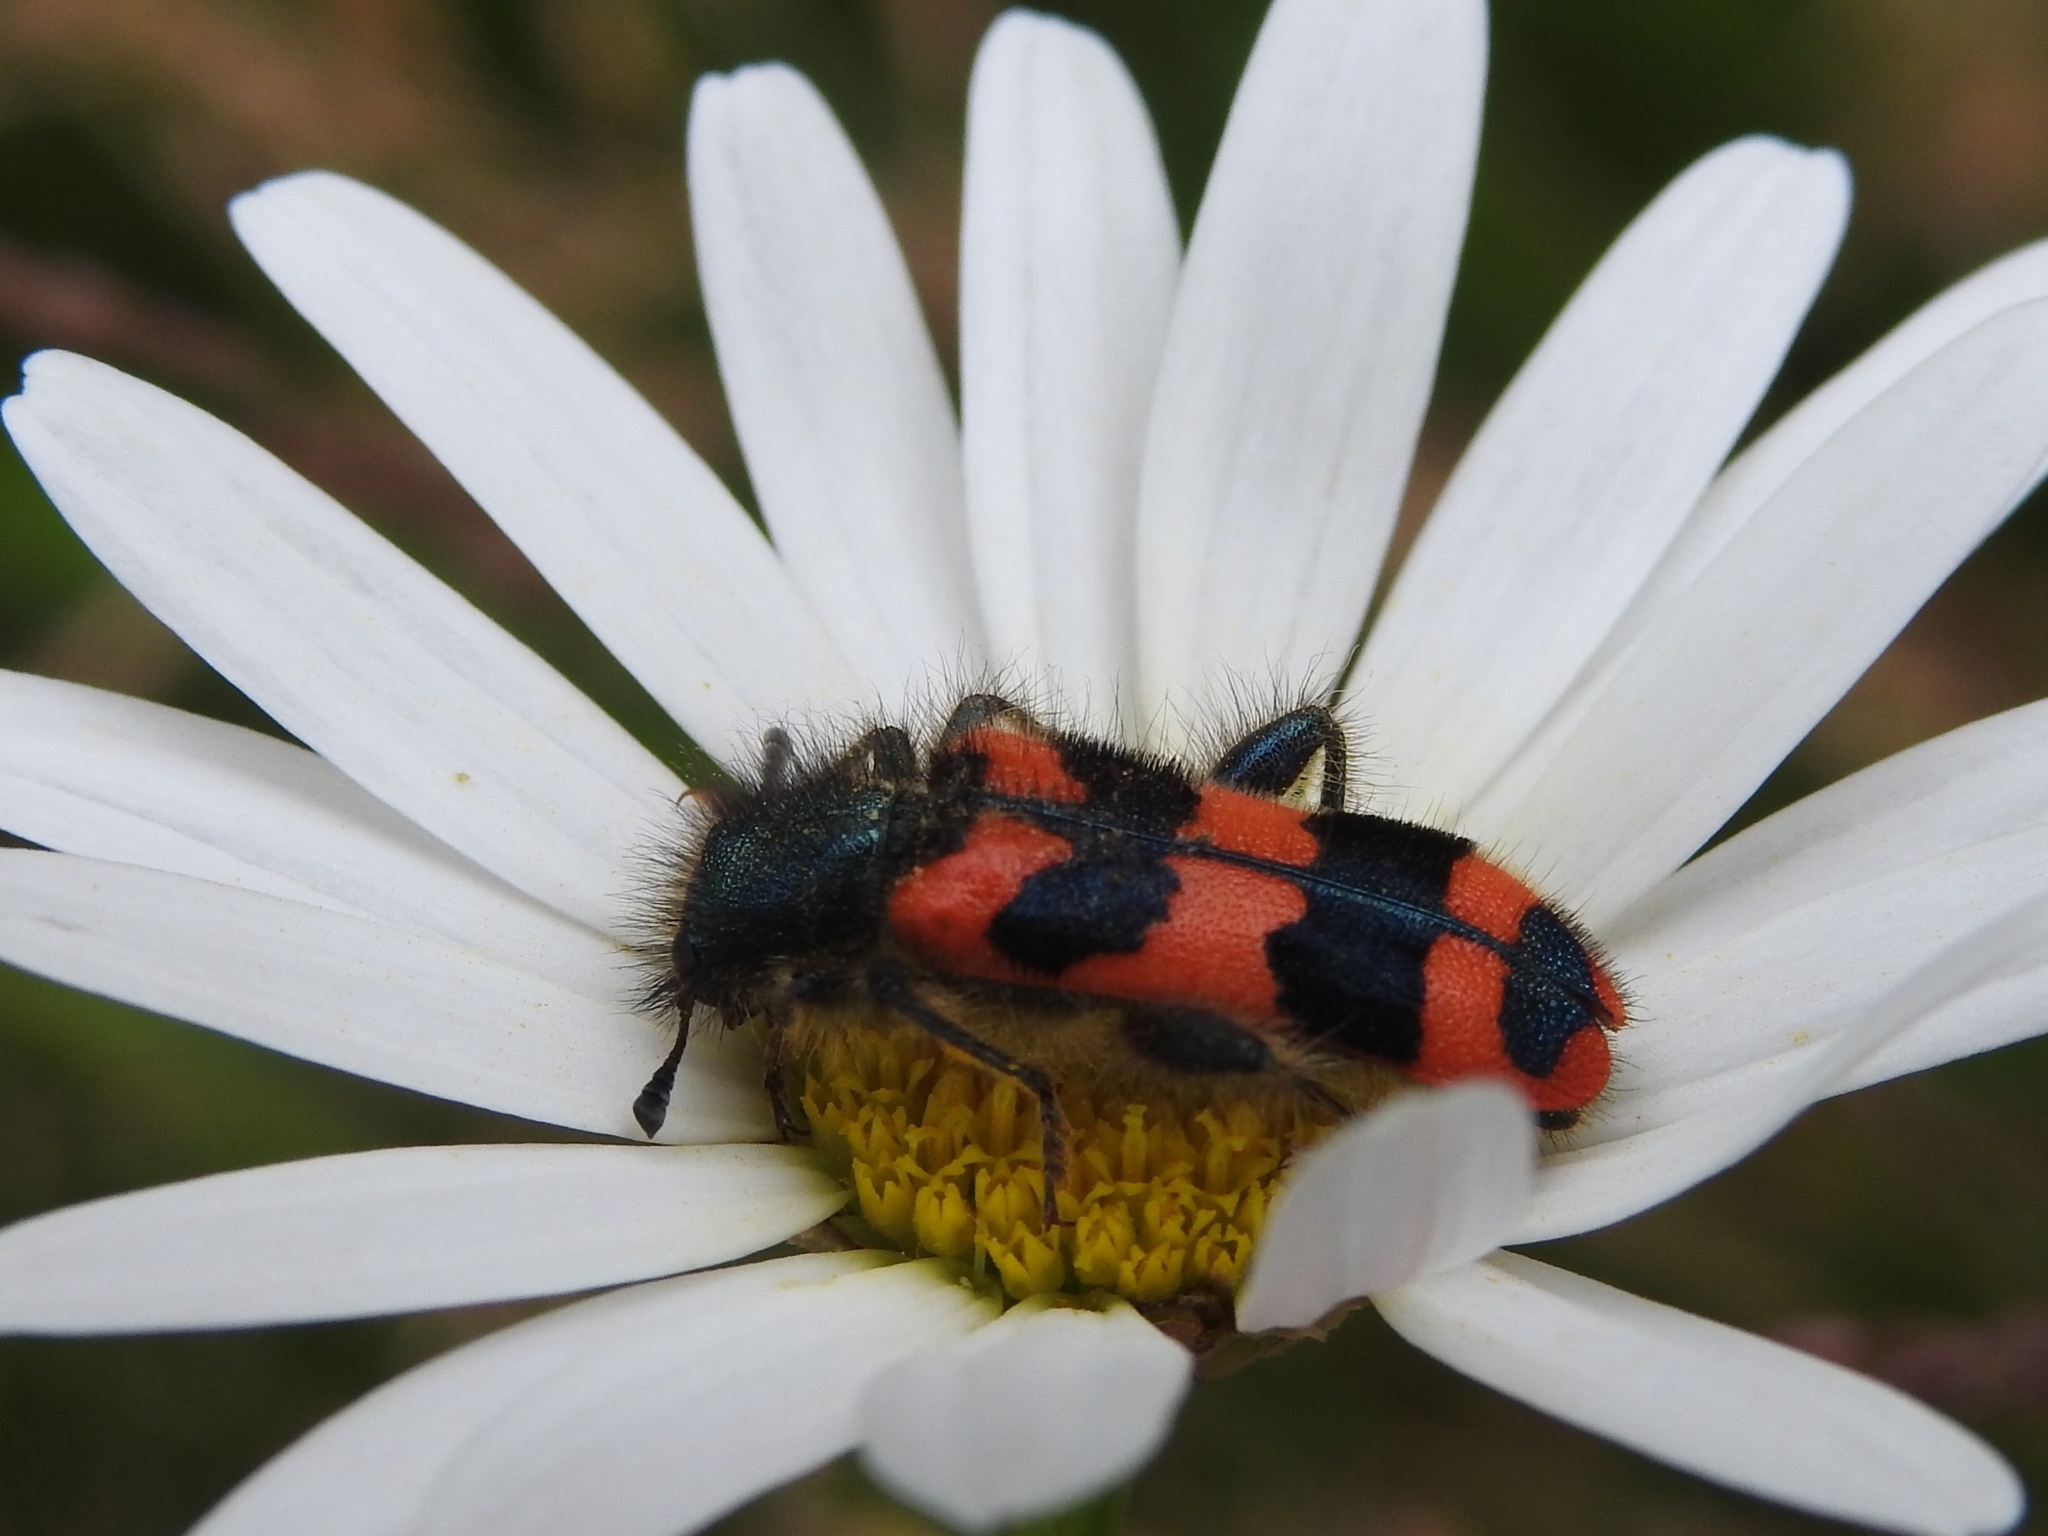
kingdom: Animalia
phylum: Arthropoda
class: Insecta
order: Coleoptera
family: Cleridae
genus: Trichodes
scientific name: Trichodes alvearius
